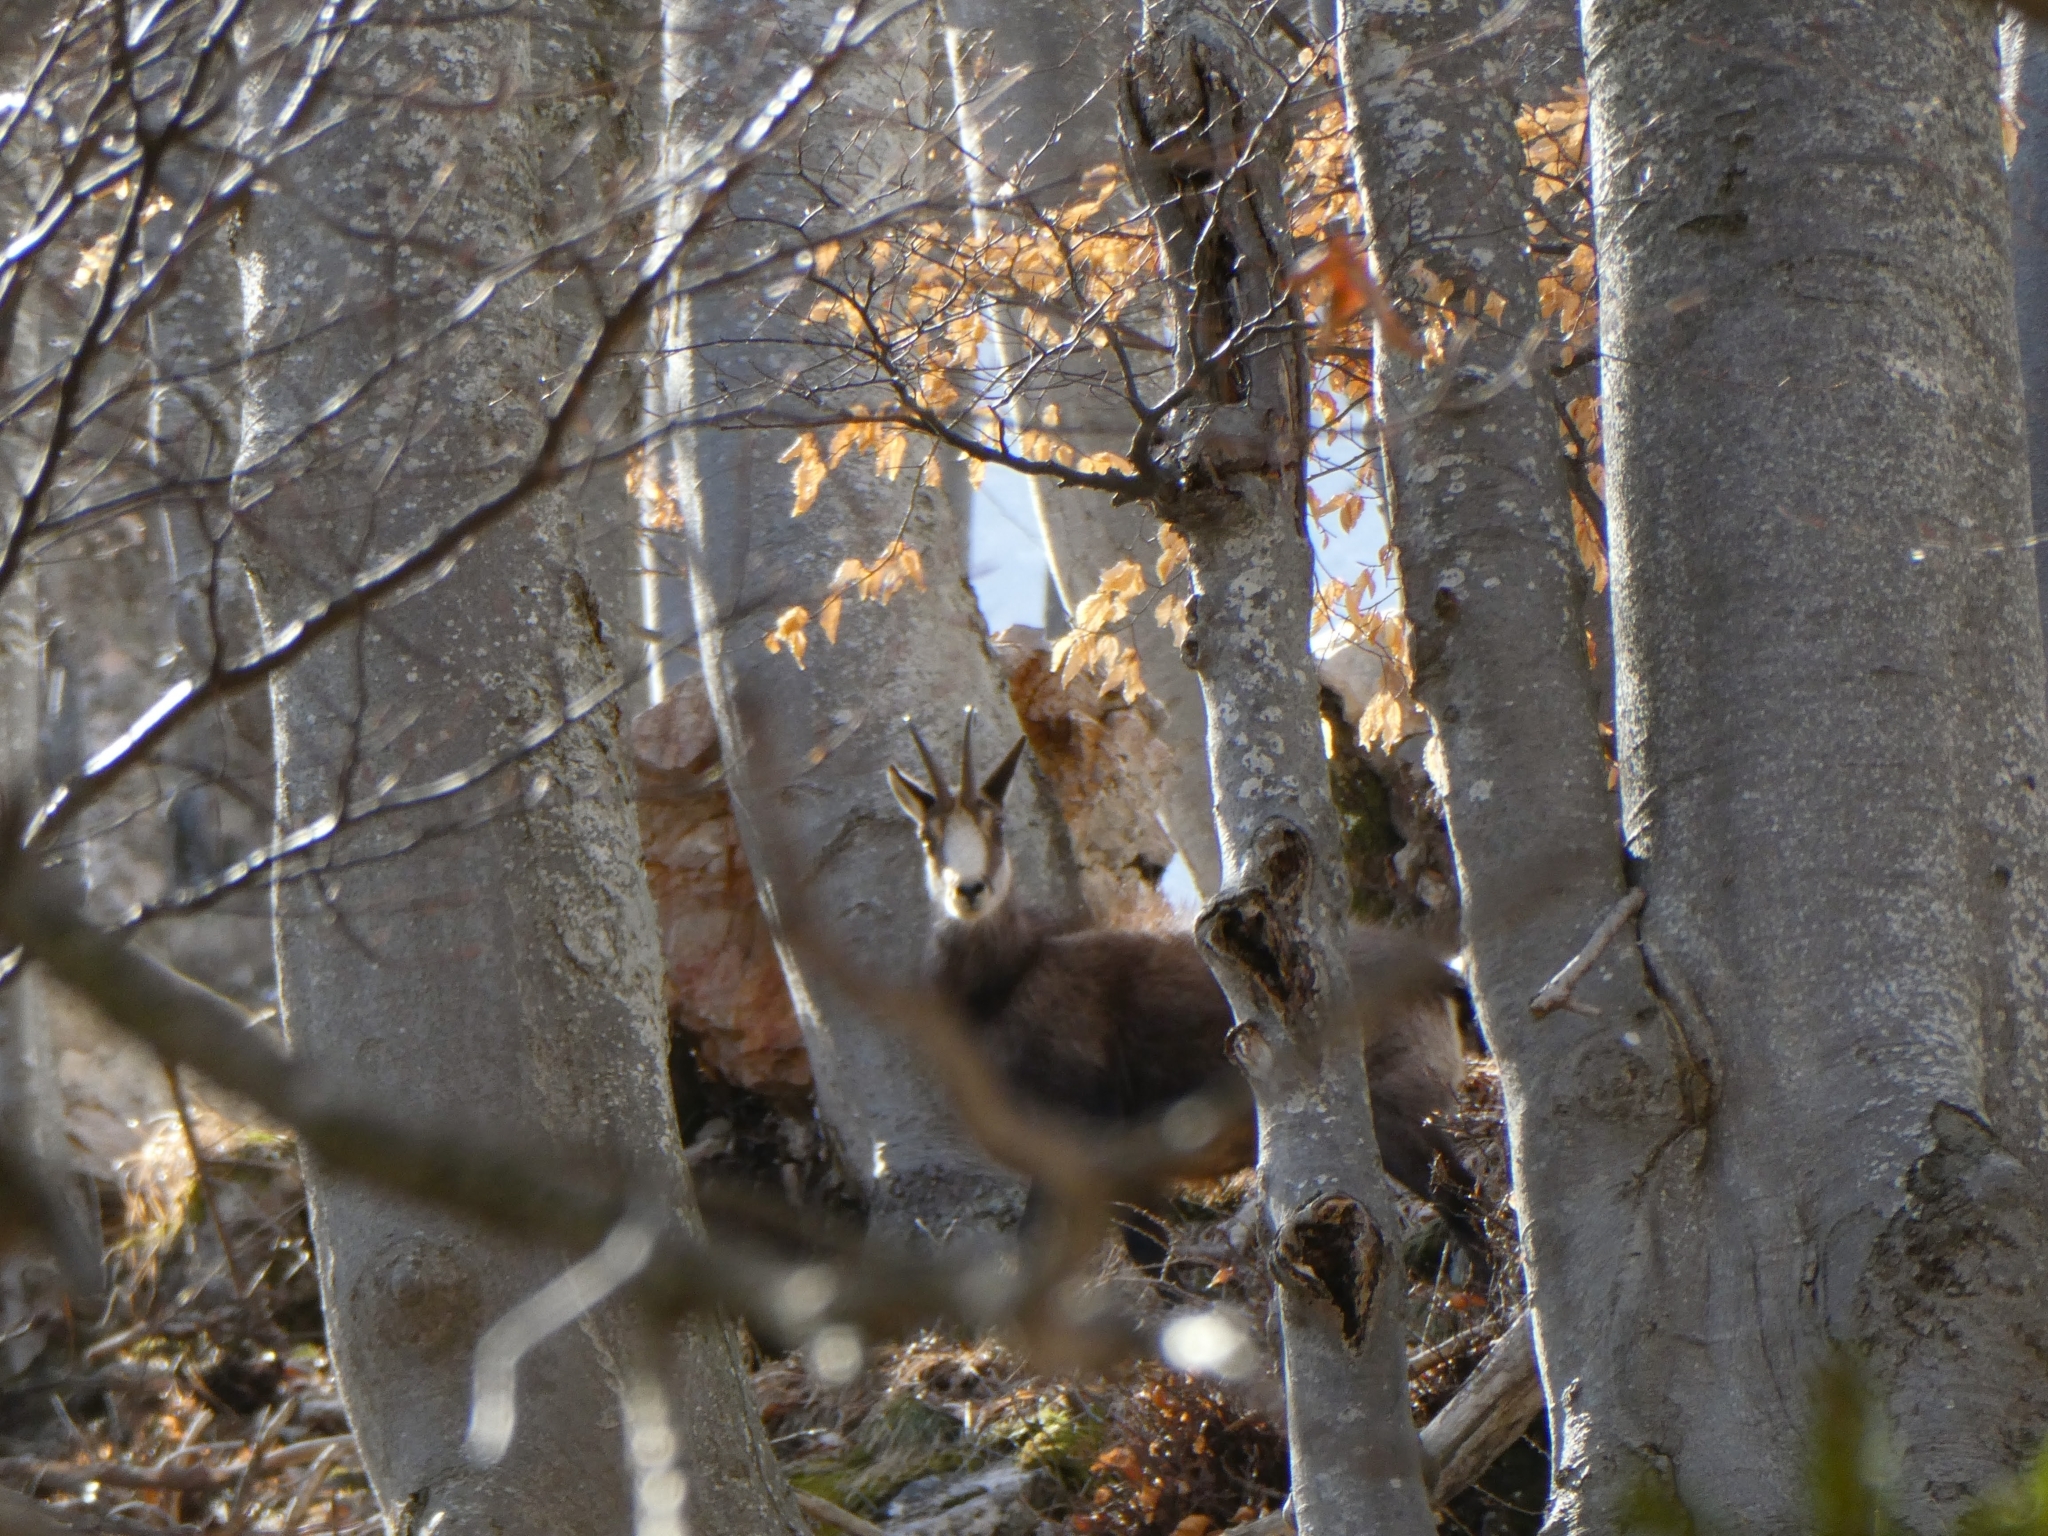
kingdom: Animalia
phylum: Chordata
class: Mammalia
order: Artiodactyla
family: Bovidae
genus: Rupicapra
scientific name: Rupicapra rupicapra
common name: Chamois
